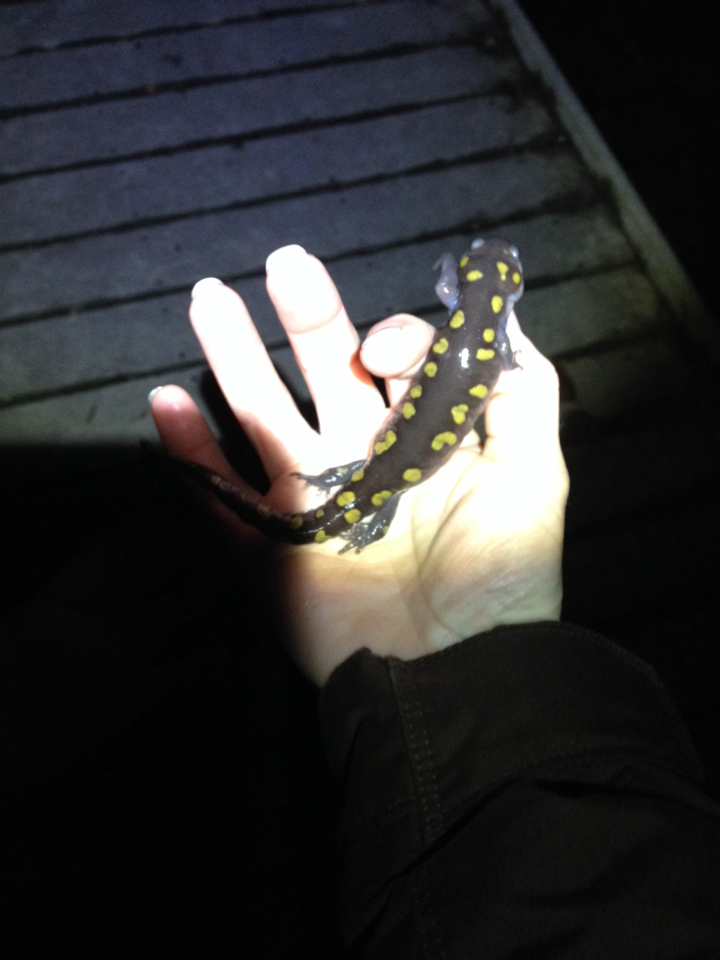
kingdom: Animalia
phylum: Chordata
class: Amphibia
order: Caudata
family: Ambystomatidae
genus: Ambystoma
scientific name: Ambystoma maculatum
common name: Spotted salamander
